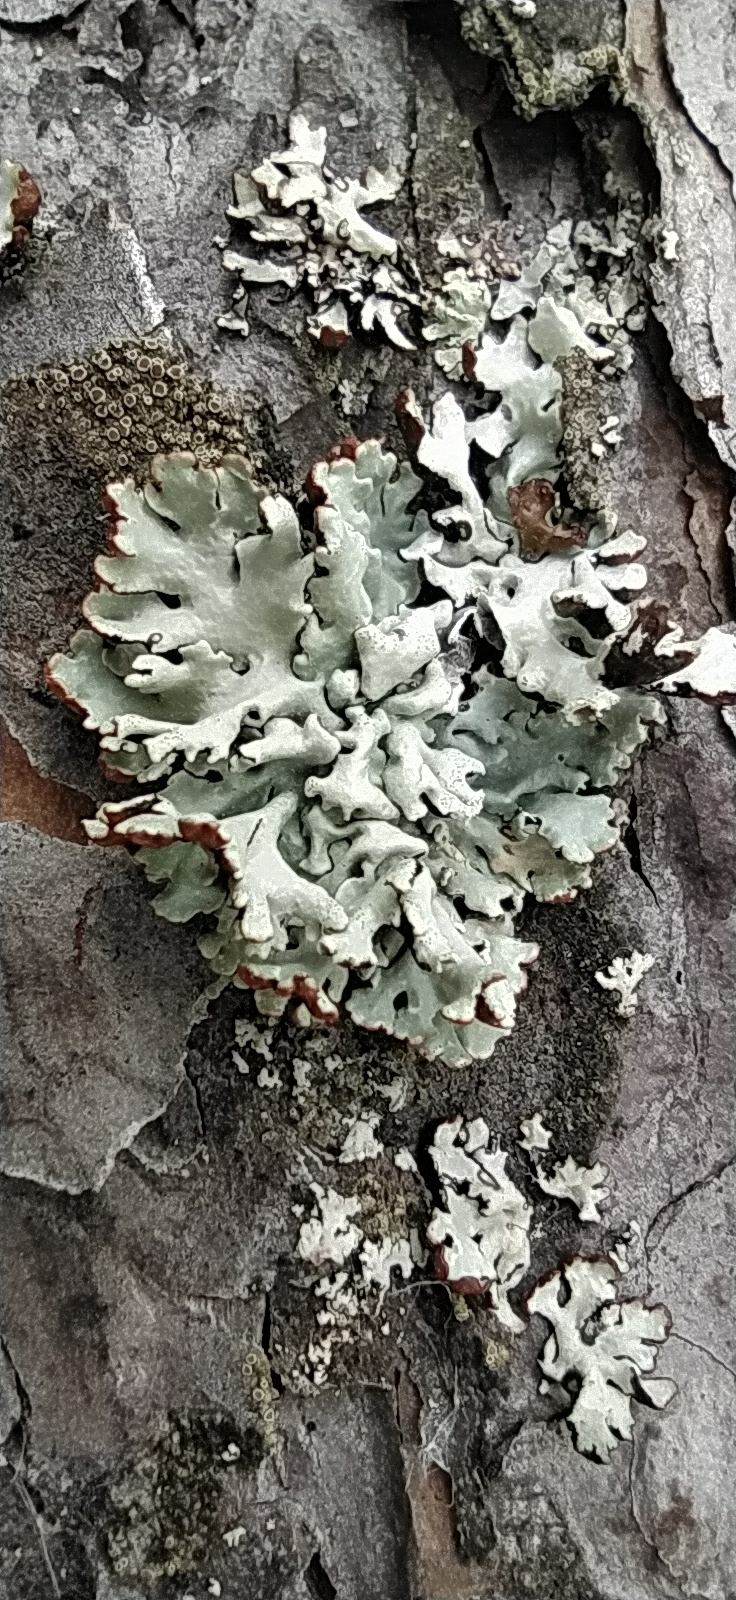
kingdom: Fungi
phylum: Ascomycota
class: Lecanoromycetes
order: Lecanorales
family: Parmeliaceae
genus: Hypogymnia
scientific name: Hypogymnia physodes
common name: Dark crottle
